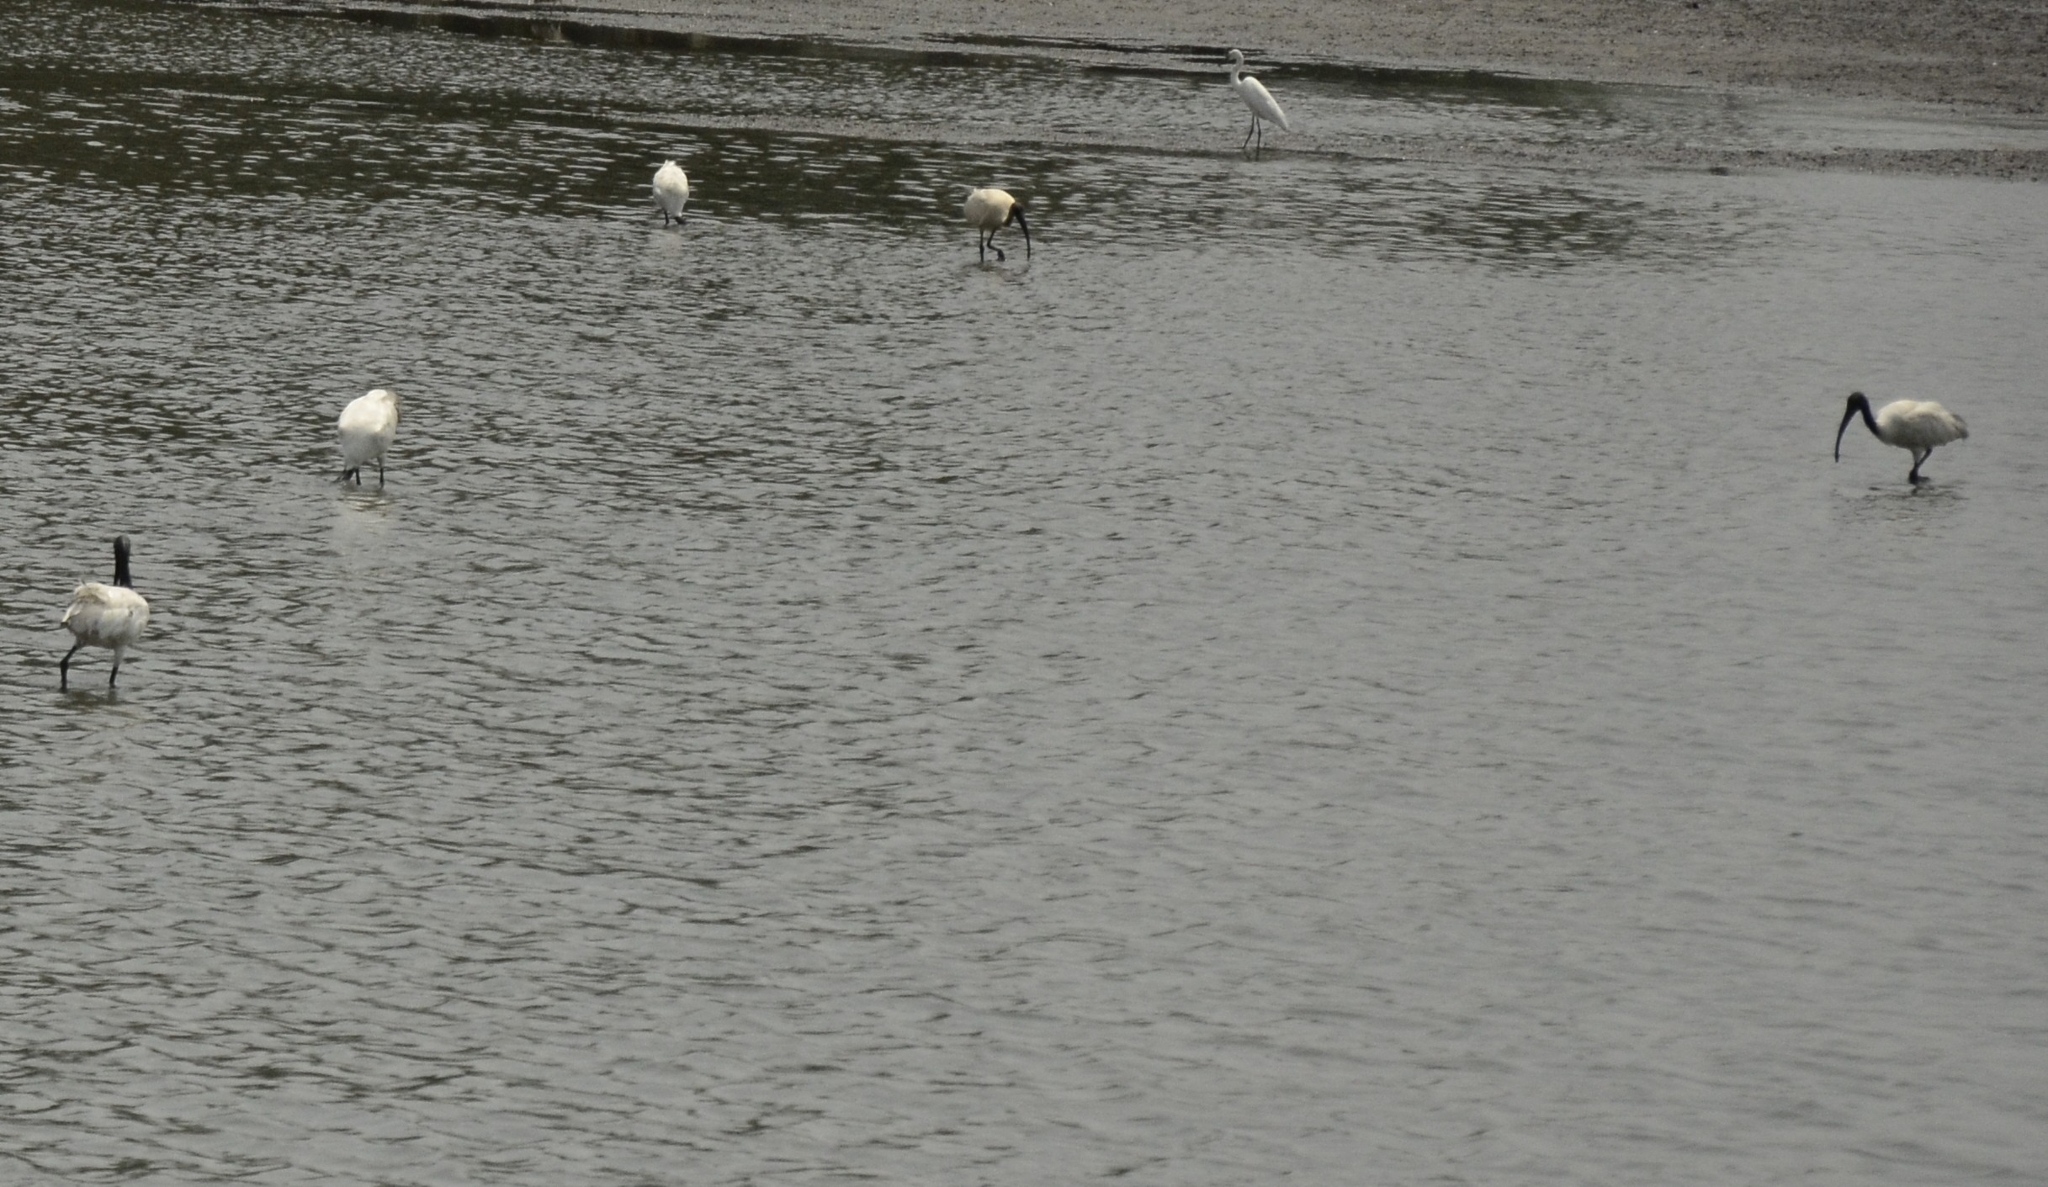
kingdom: Animalia
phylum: Chordata
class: Aves
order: Pelecaniformes
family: Threskiornithidae
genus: Threskiornis
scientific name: Threskiornis melanocephalus
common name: Black-headed ibis
